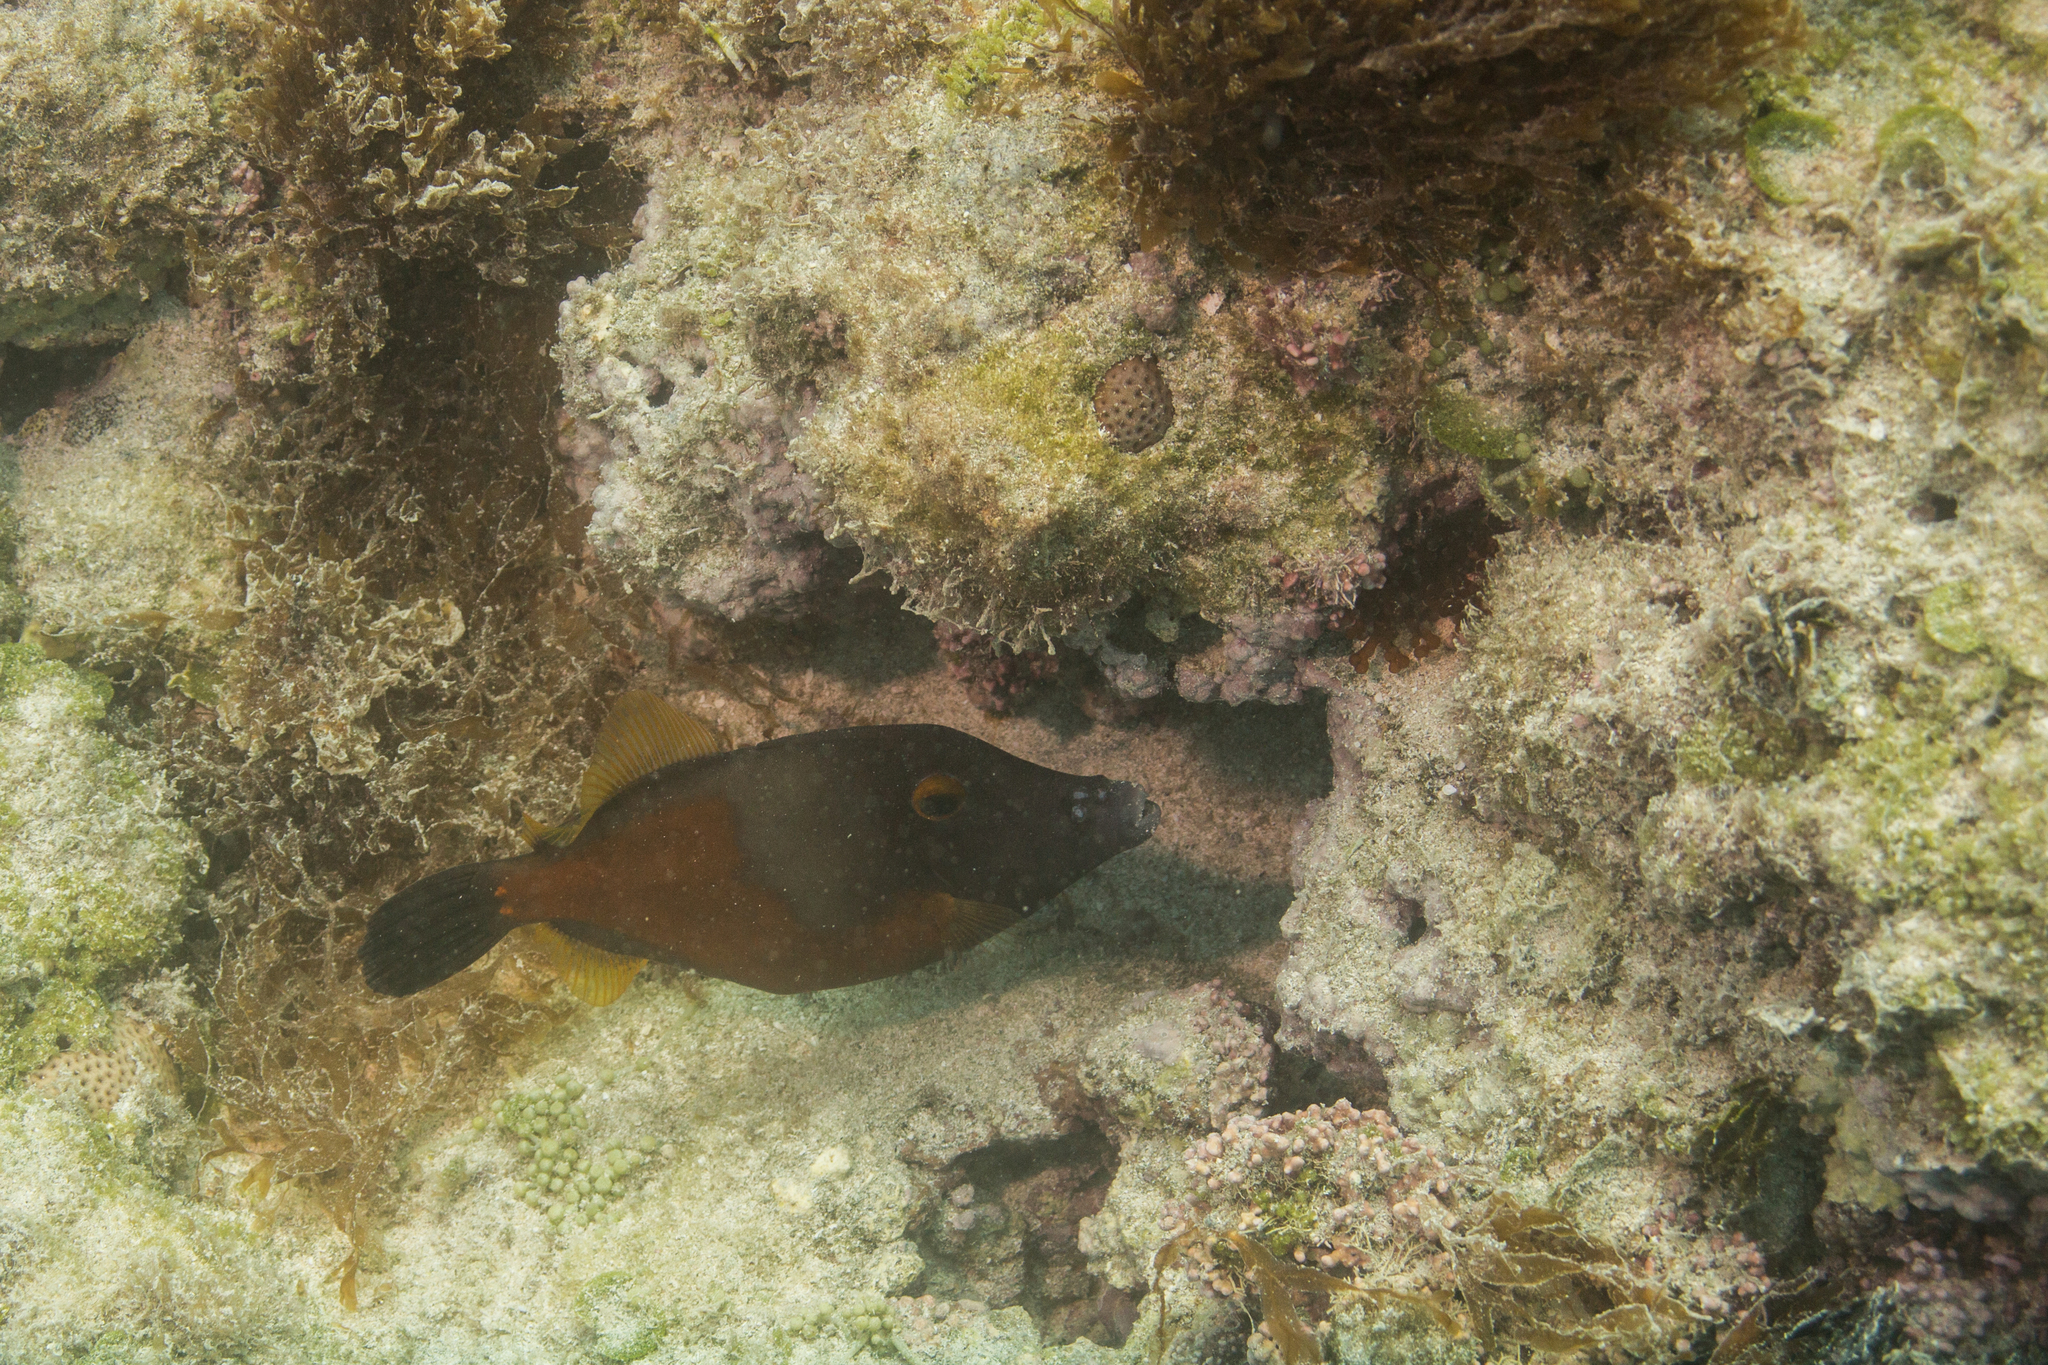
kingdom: Animalia
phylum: Chordata
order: Tetraodontiformes
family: Monacanthidae
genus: Cantherhines
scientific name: Cantherhines macrocerus
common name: Whitespotted filefish
